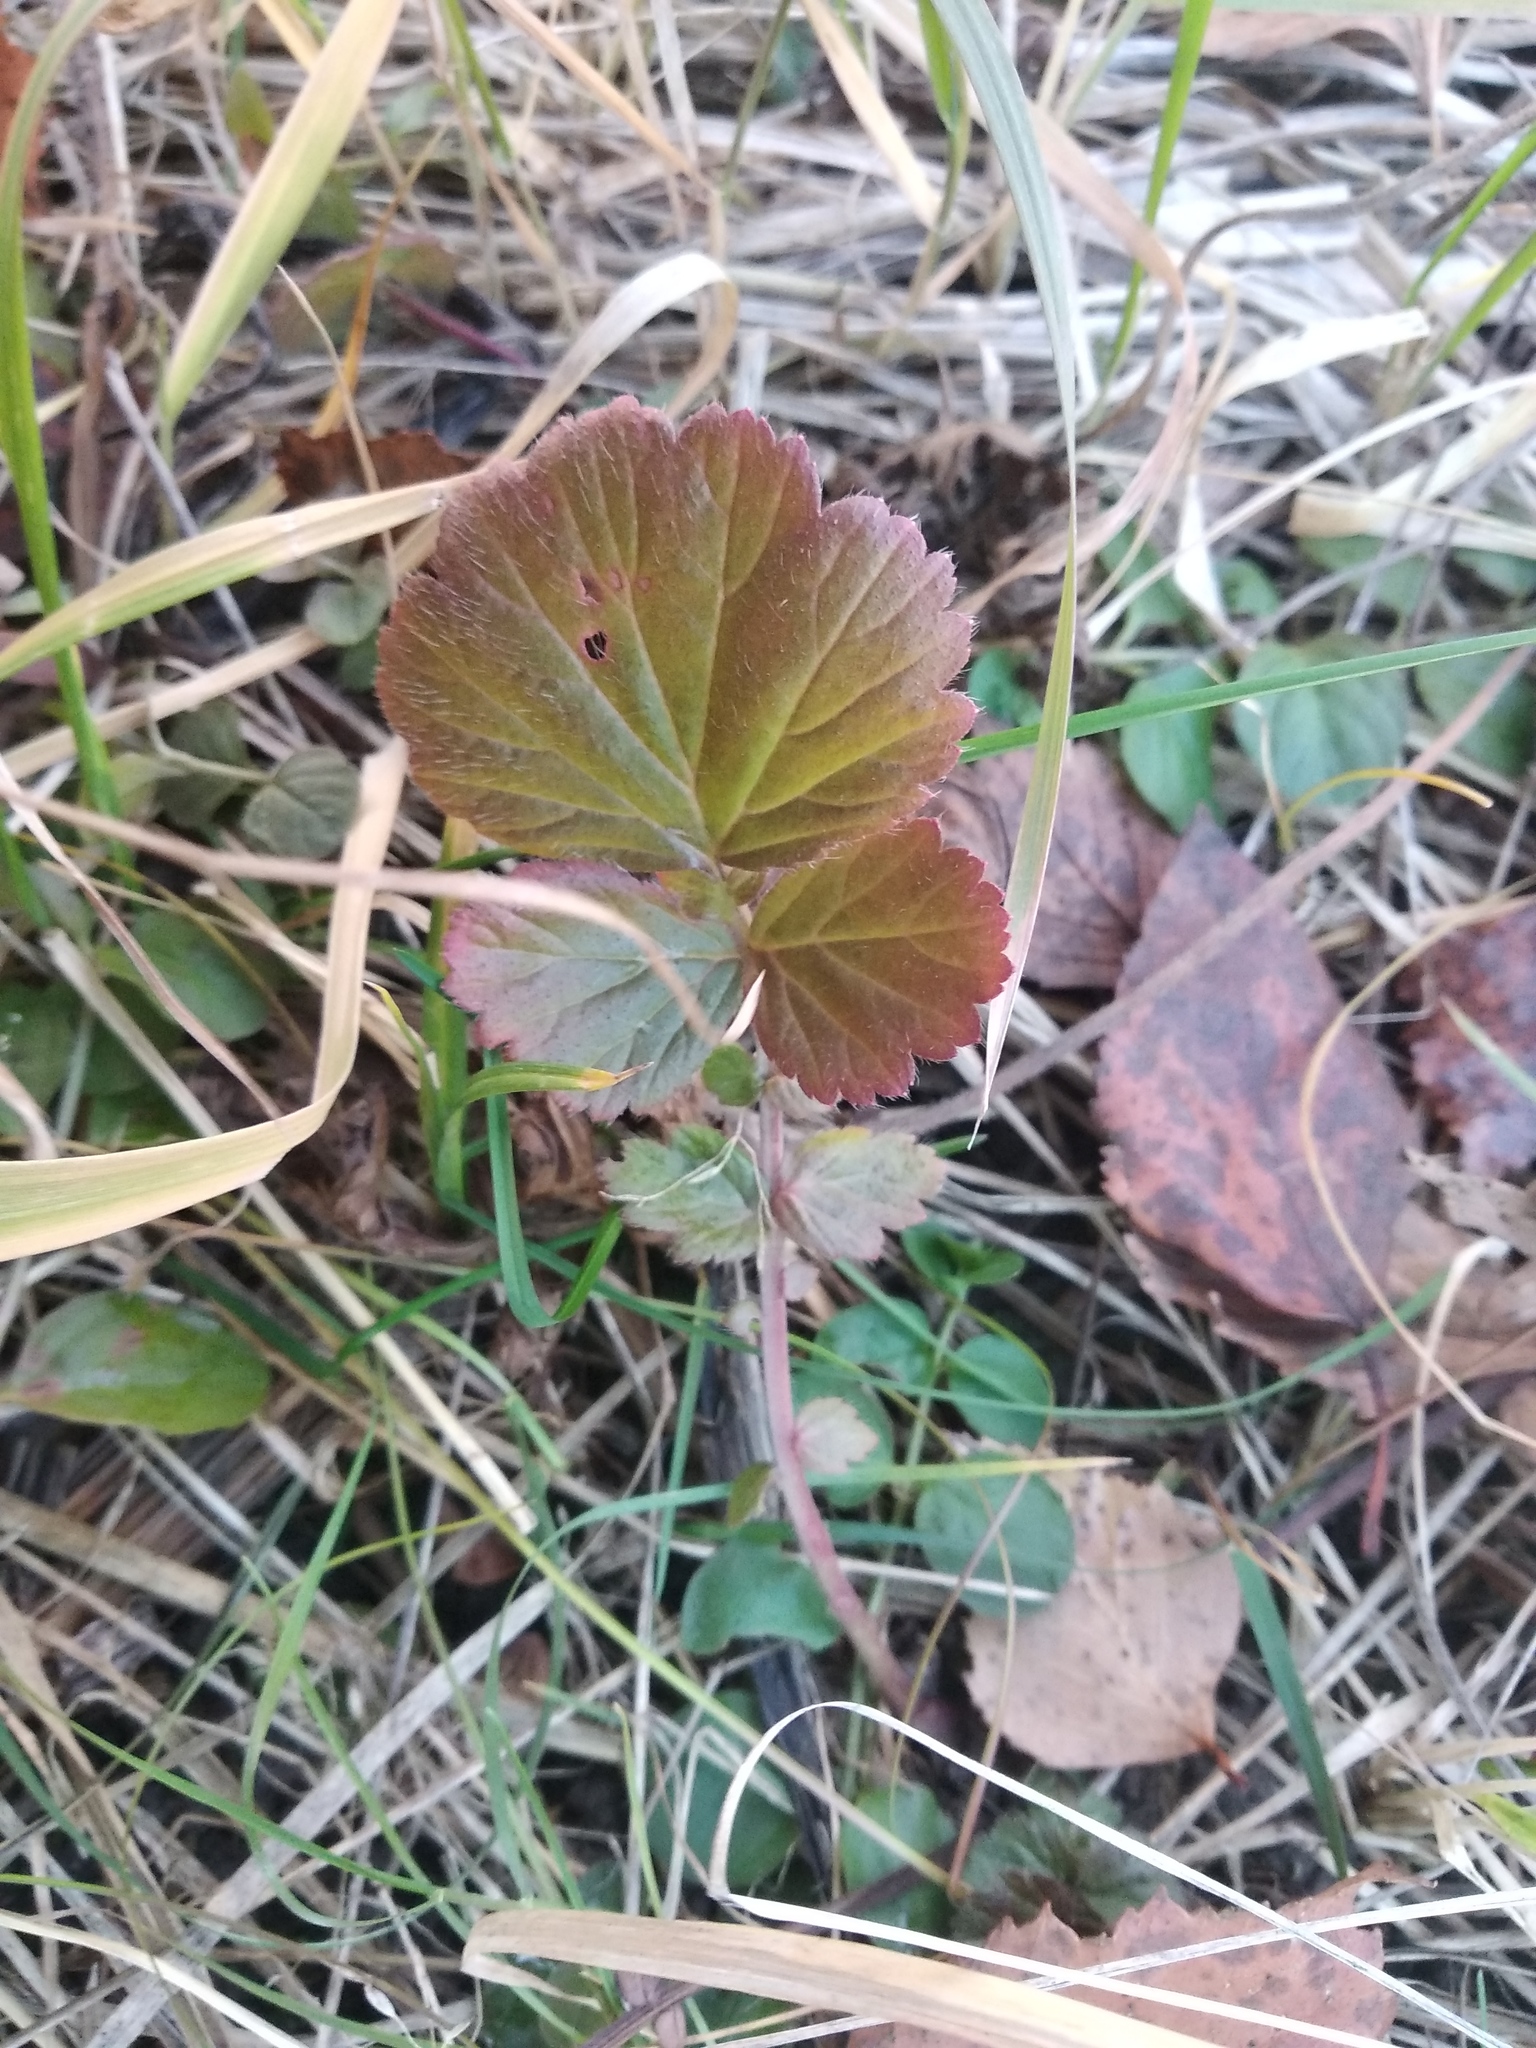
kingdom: Plantae
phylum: Tracheophyta
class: Magnoliopsida
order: Rosales
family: Rosaceae
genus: Geum
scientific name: Geum
